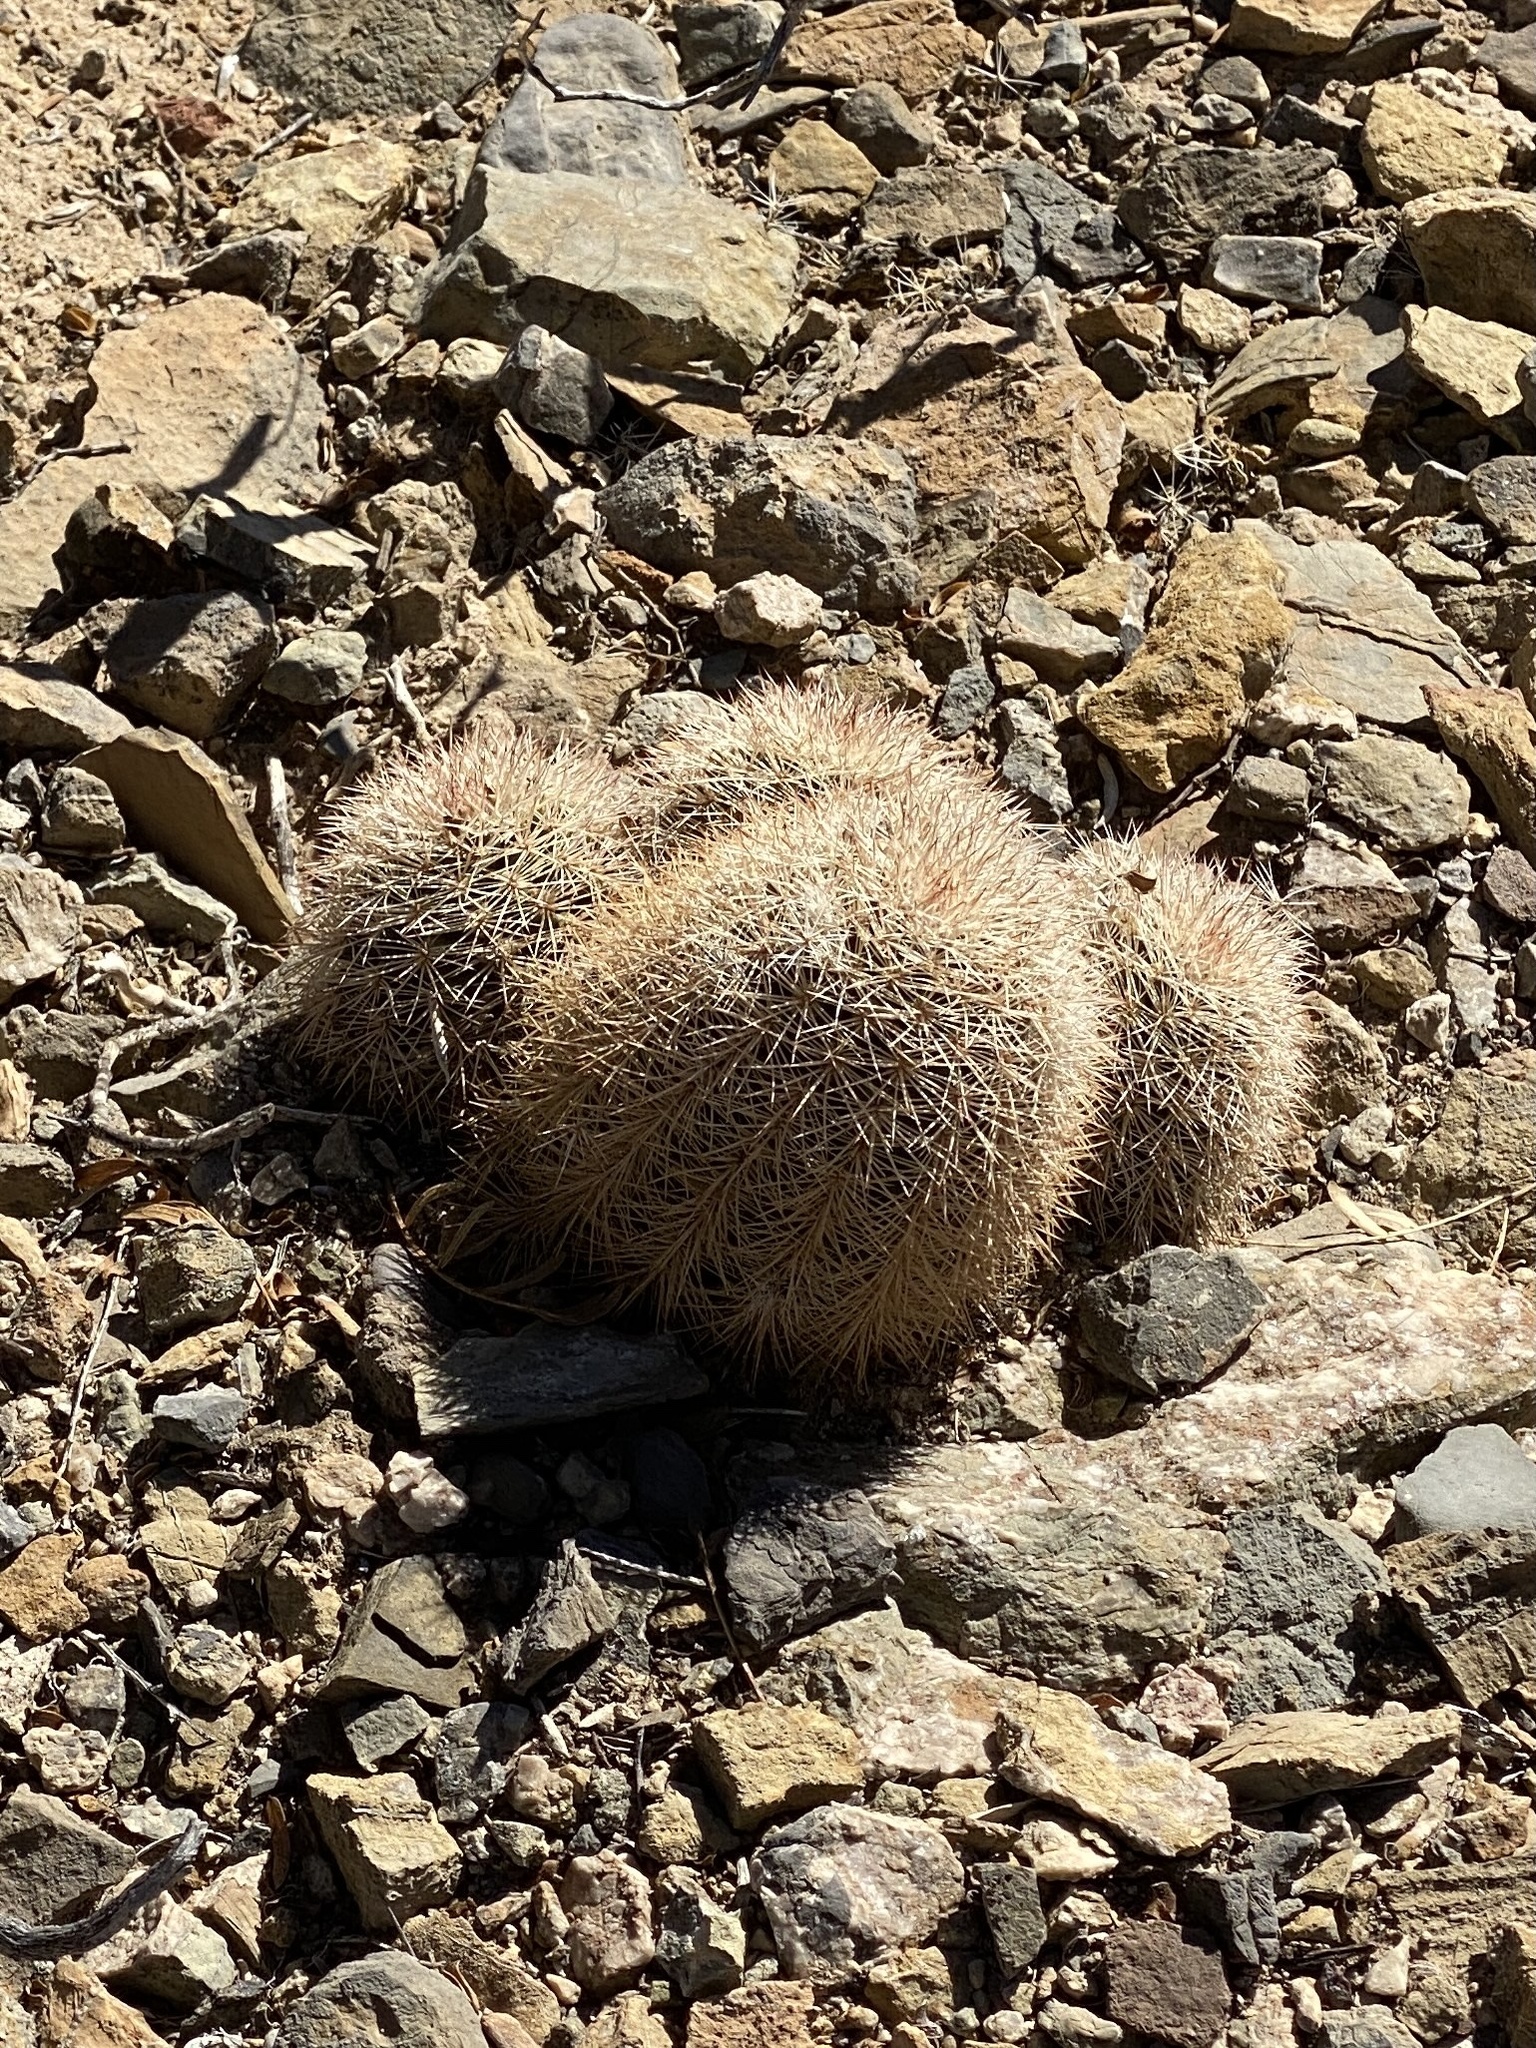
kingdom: Plantae
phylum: Tracheophyta
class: Magnoliopsida
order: Caryophyllales
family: Cactaceae
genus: Echinocereus
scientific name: Echinocereus dasyacanthus
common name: Spiny hedgehog cactus
